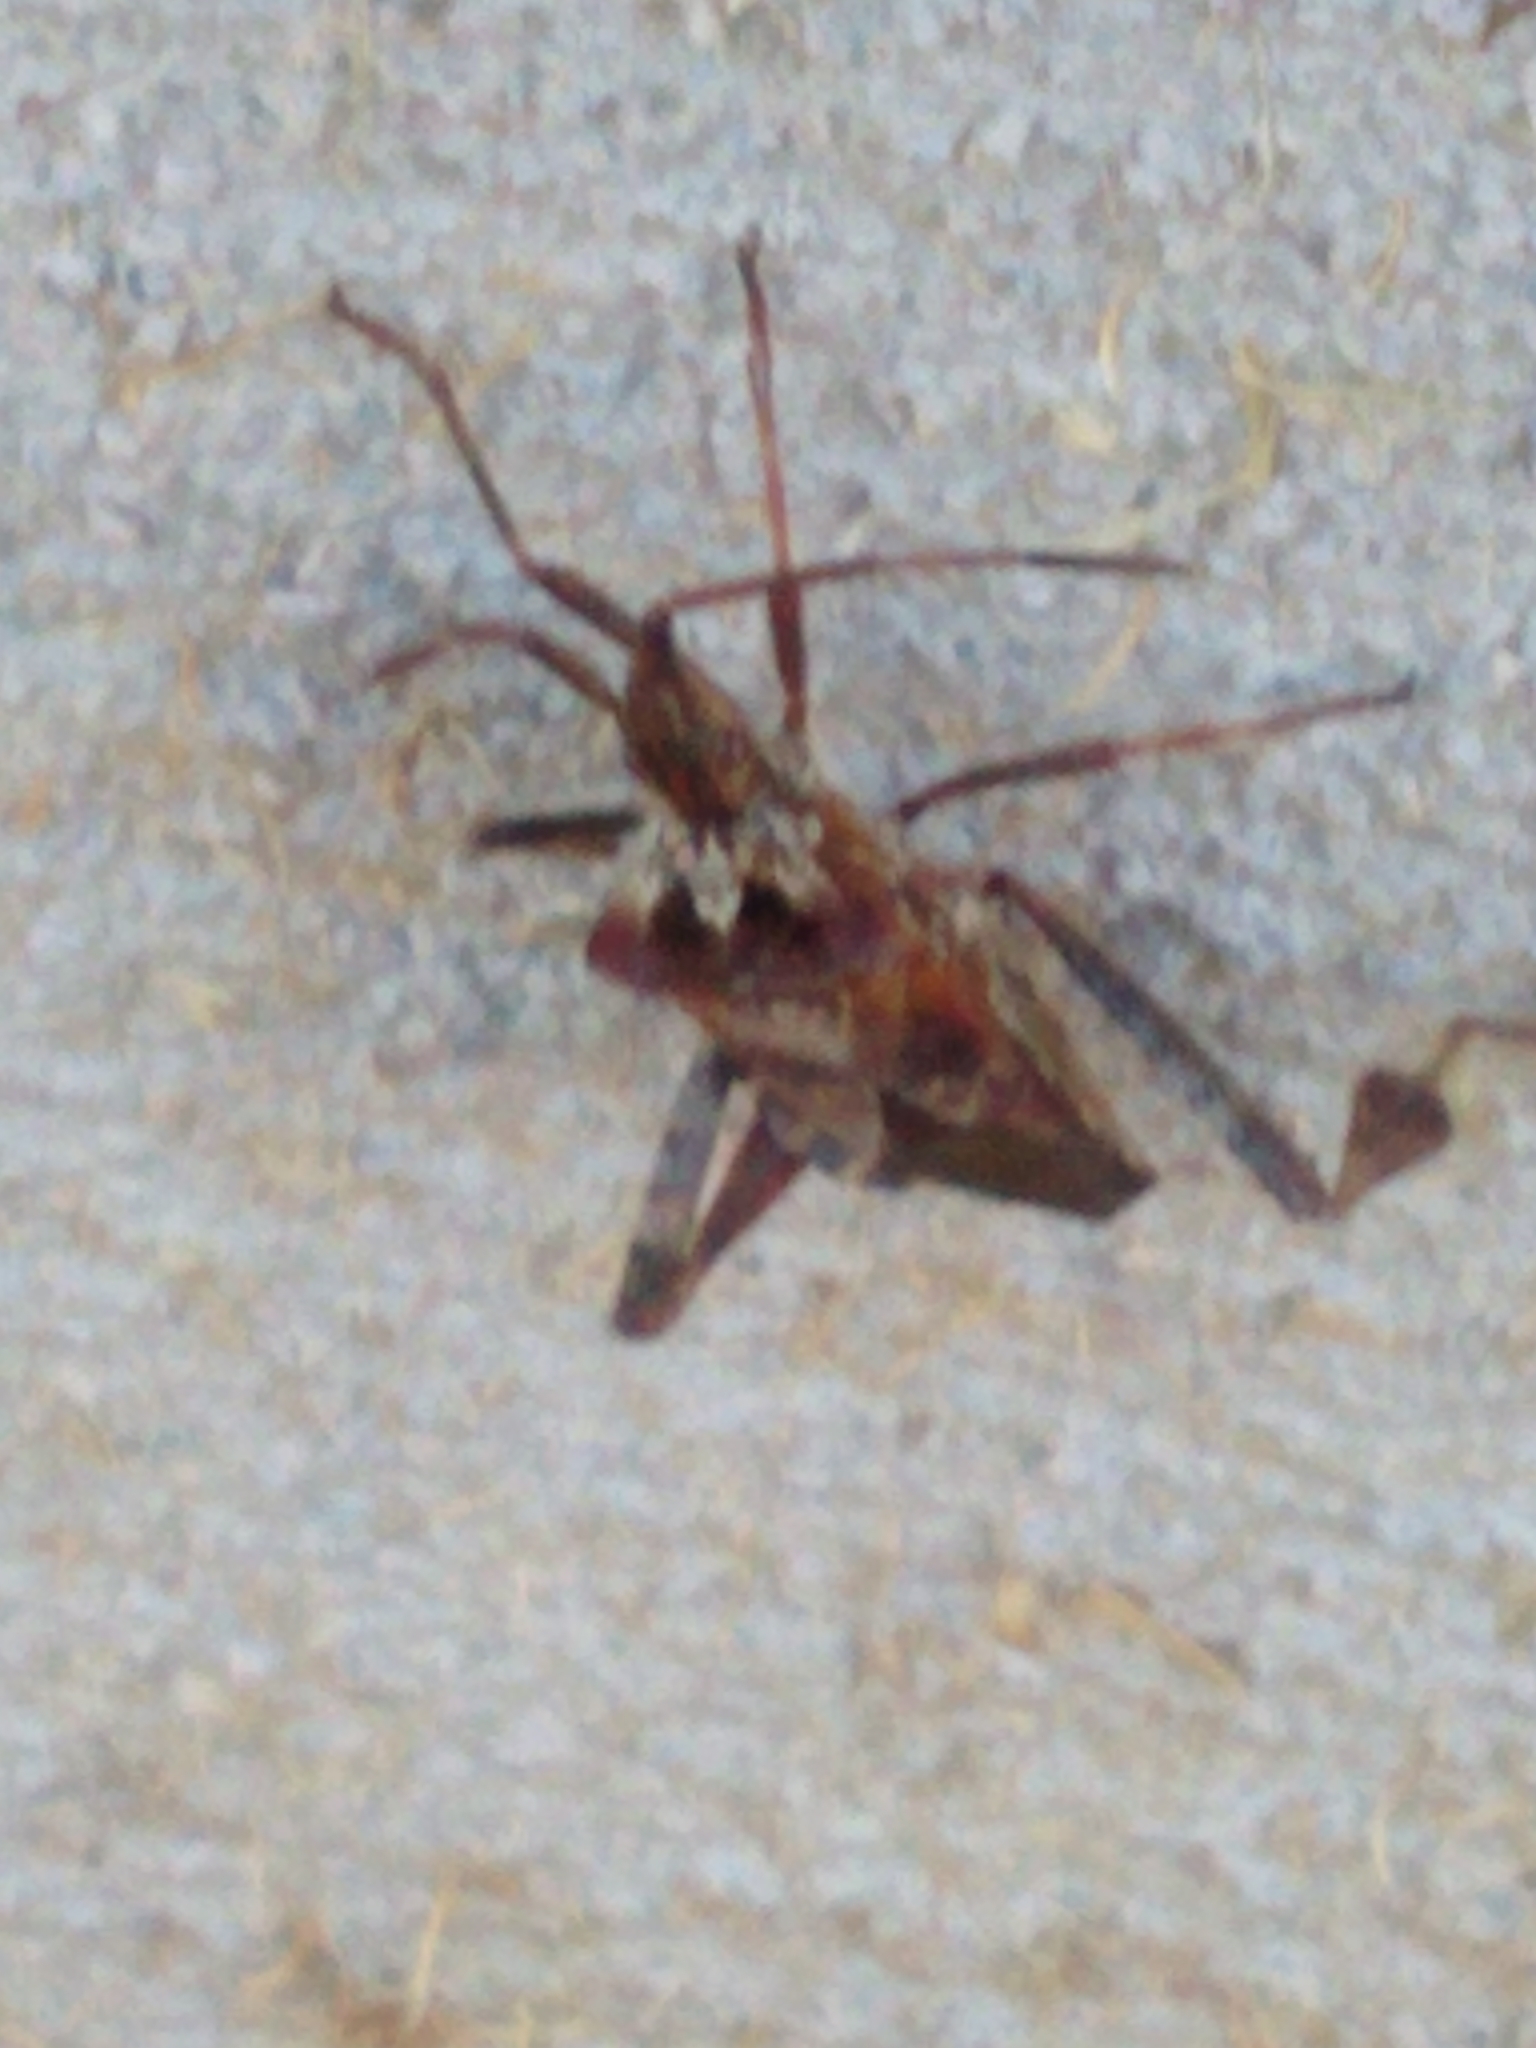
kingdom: Animalia
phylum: Arthropoda
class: Insecta
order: Hemiptera
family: Coreidae
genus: Leptoglossus
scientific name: Leptoglossus occidentalis
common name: Western conifer-seed bug
